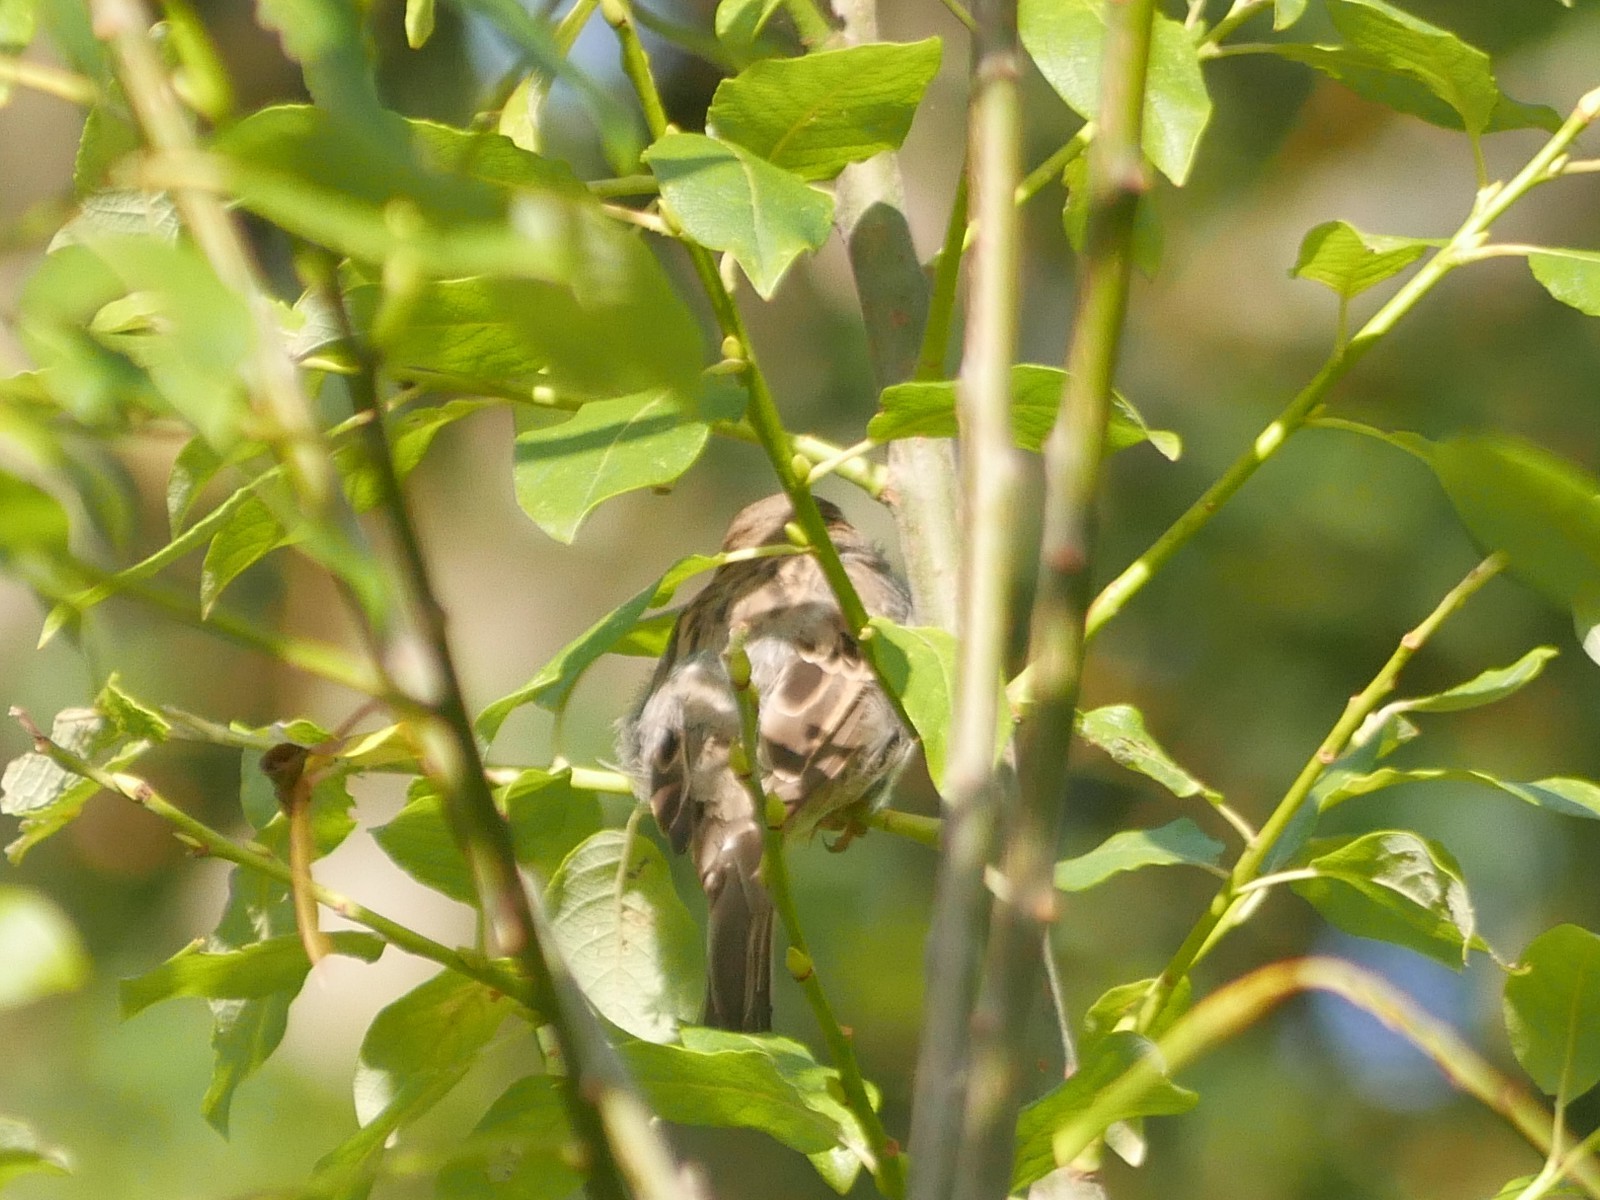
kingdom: Animalia
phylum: Chordata
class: Aves
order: Passeriformes
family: Passeridae
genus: Passer
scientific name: Passer domesticus
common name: House sparrow
